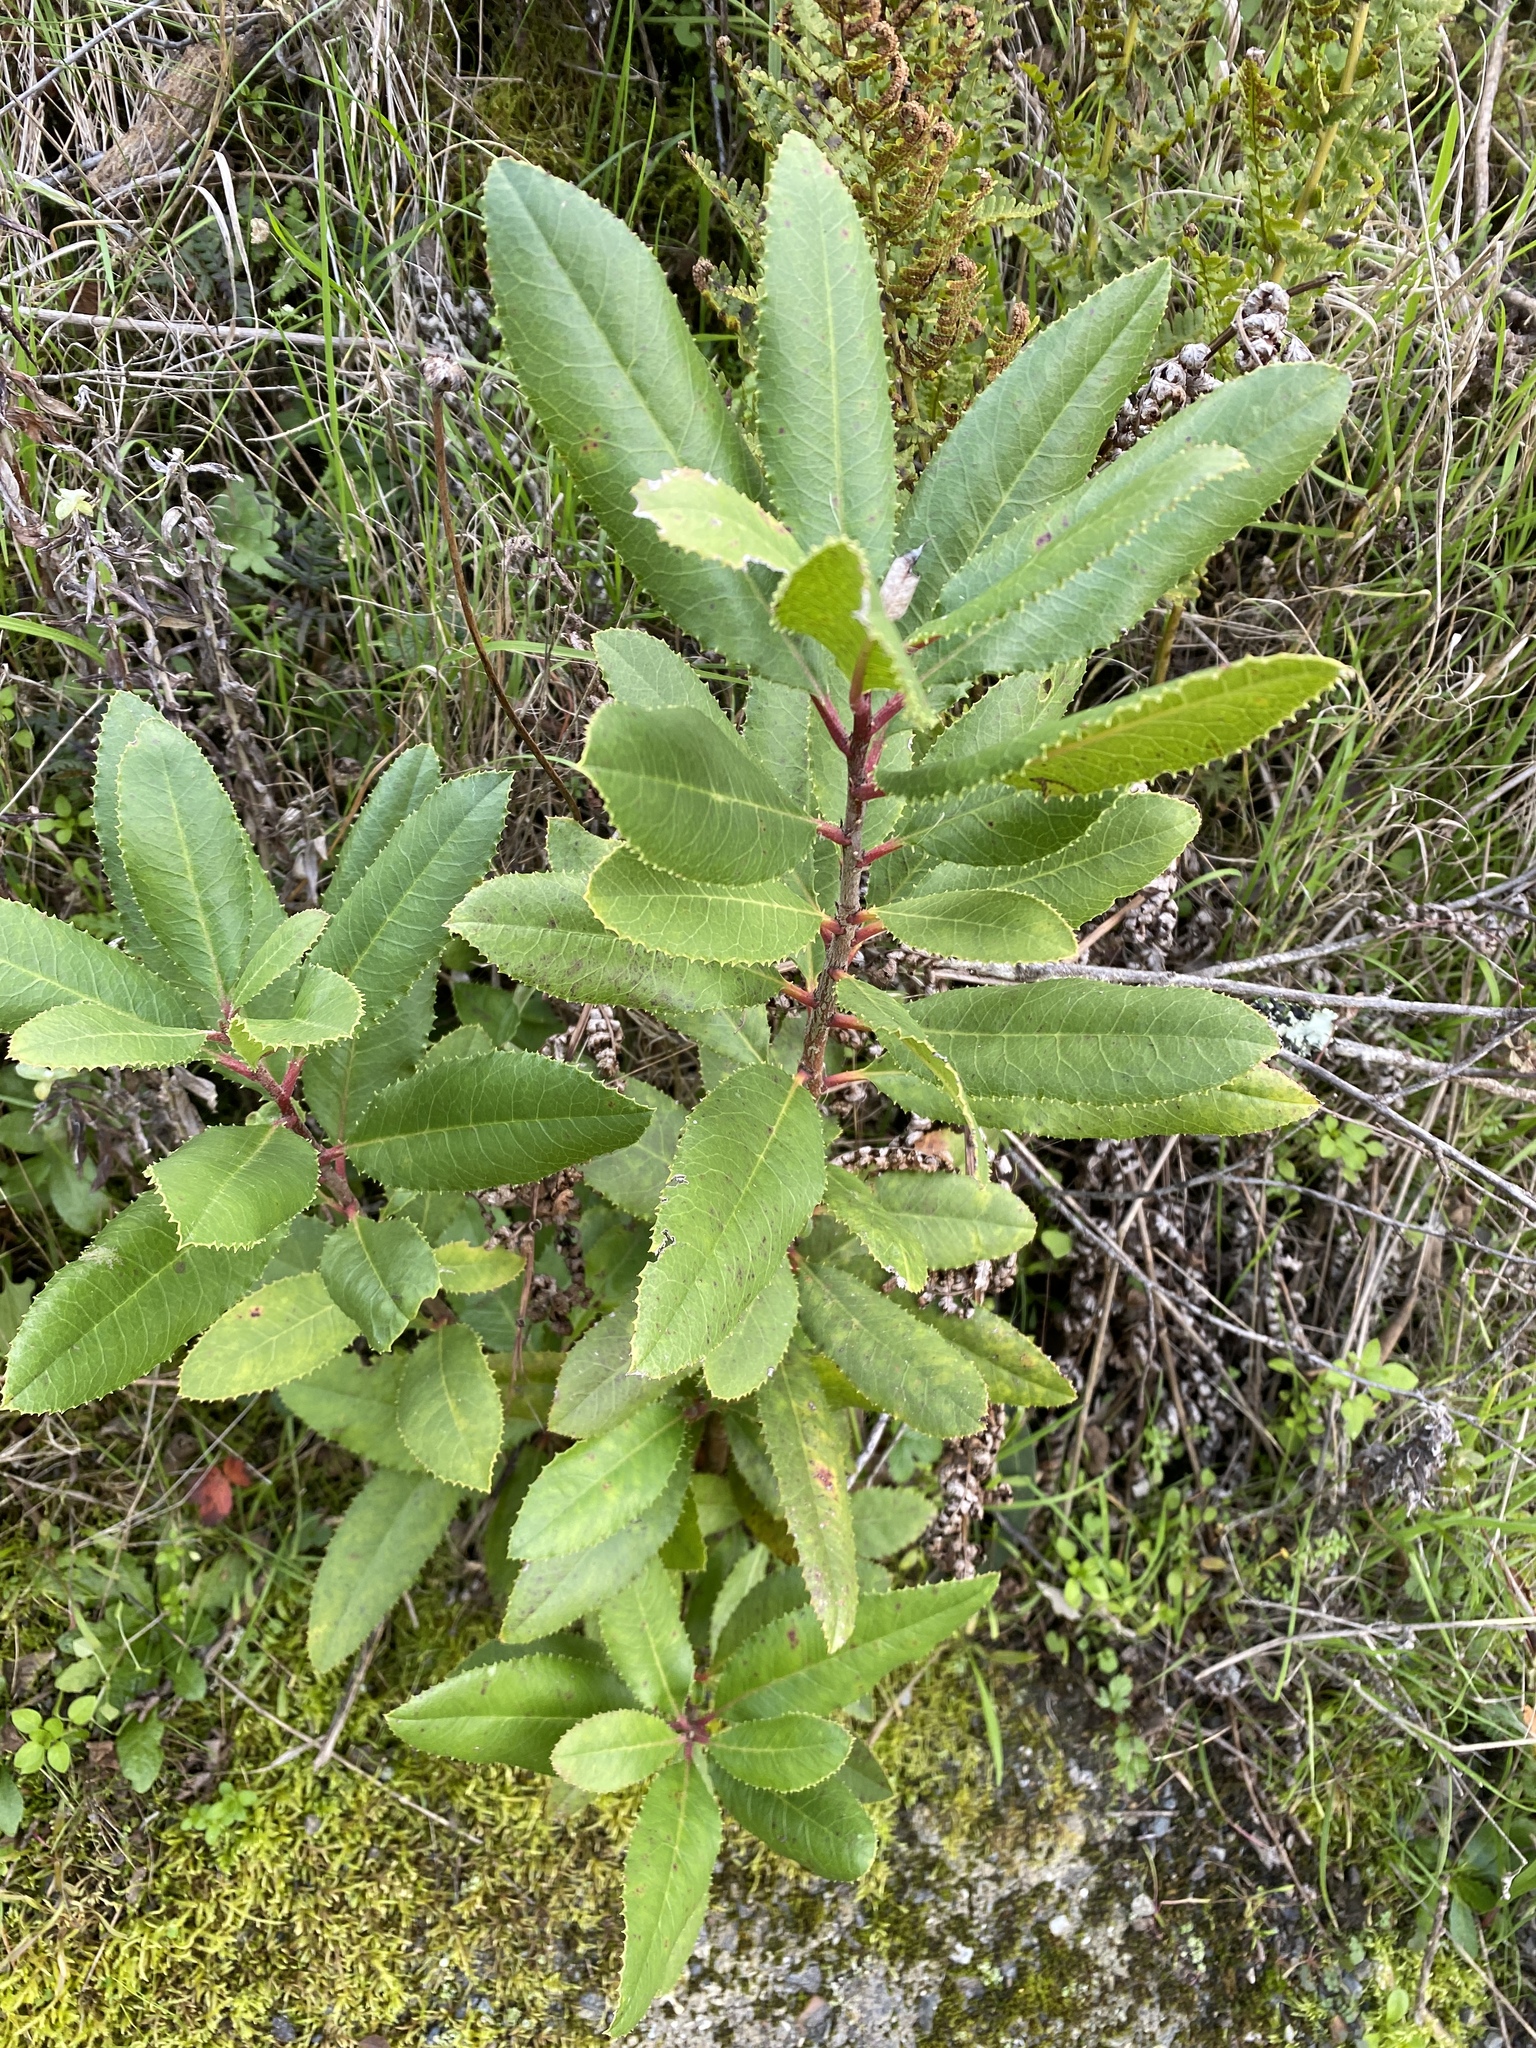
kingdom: Plantae
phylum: Tracheophyta
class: Magnoliopsida
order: Rosales
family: Rosaceae
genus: Heteromeles
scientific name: Heteromeles arbutifolia
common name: California-holly
